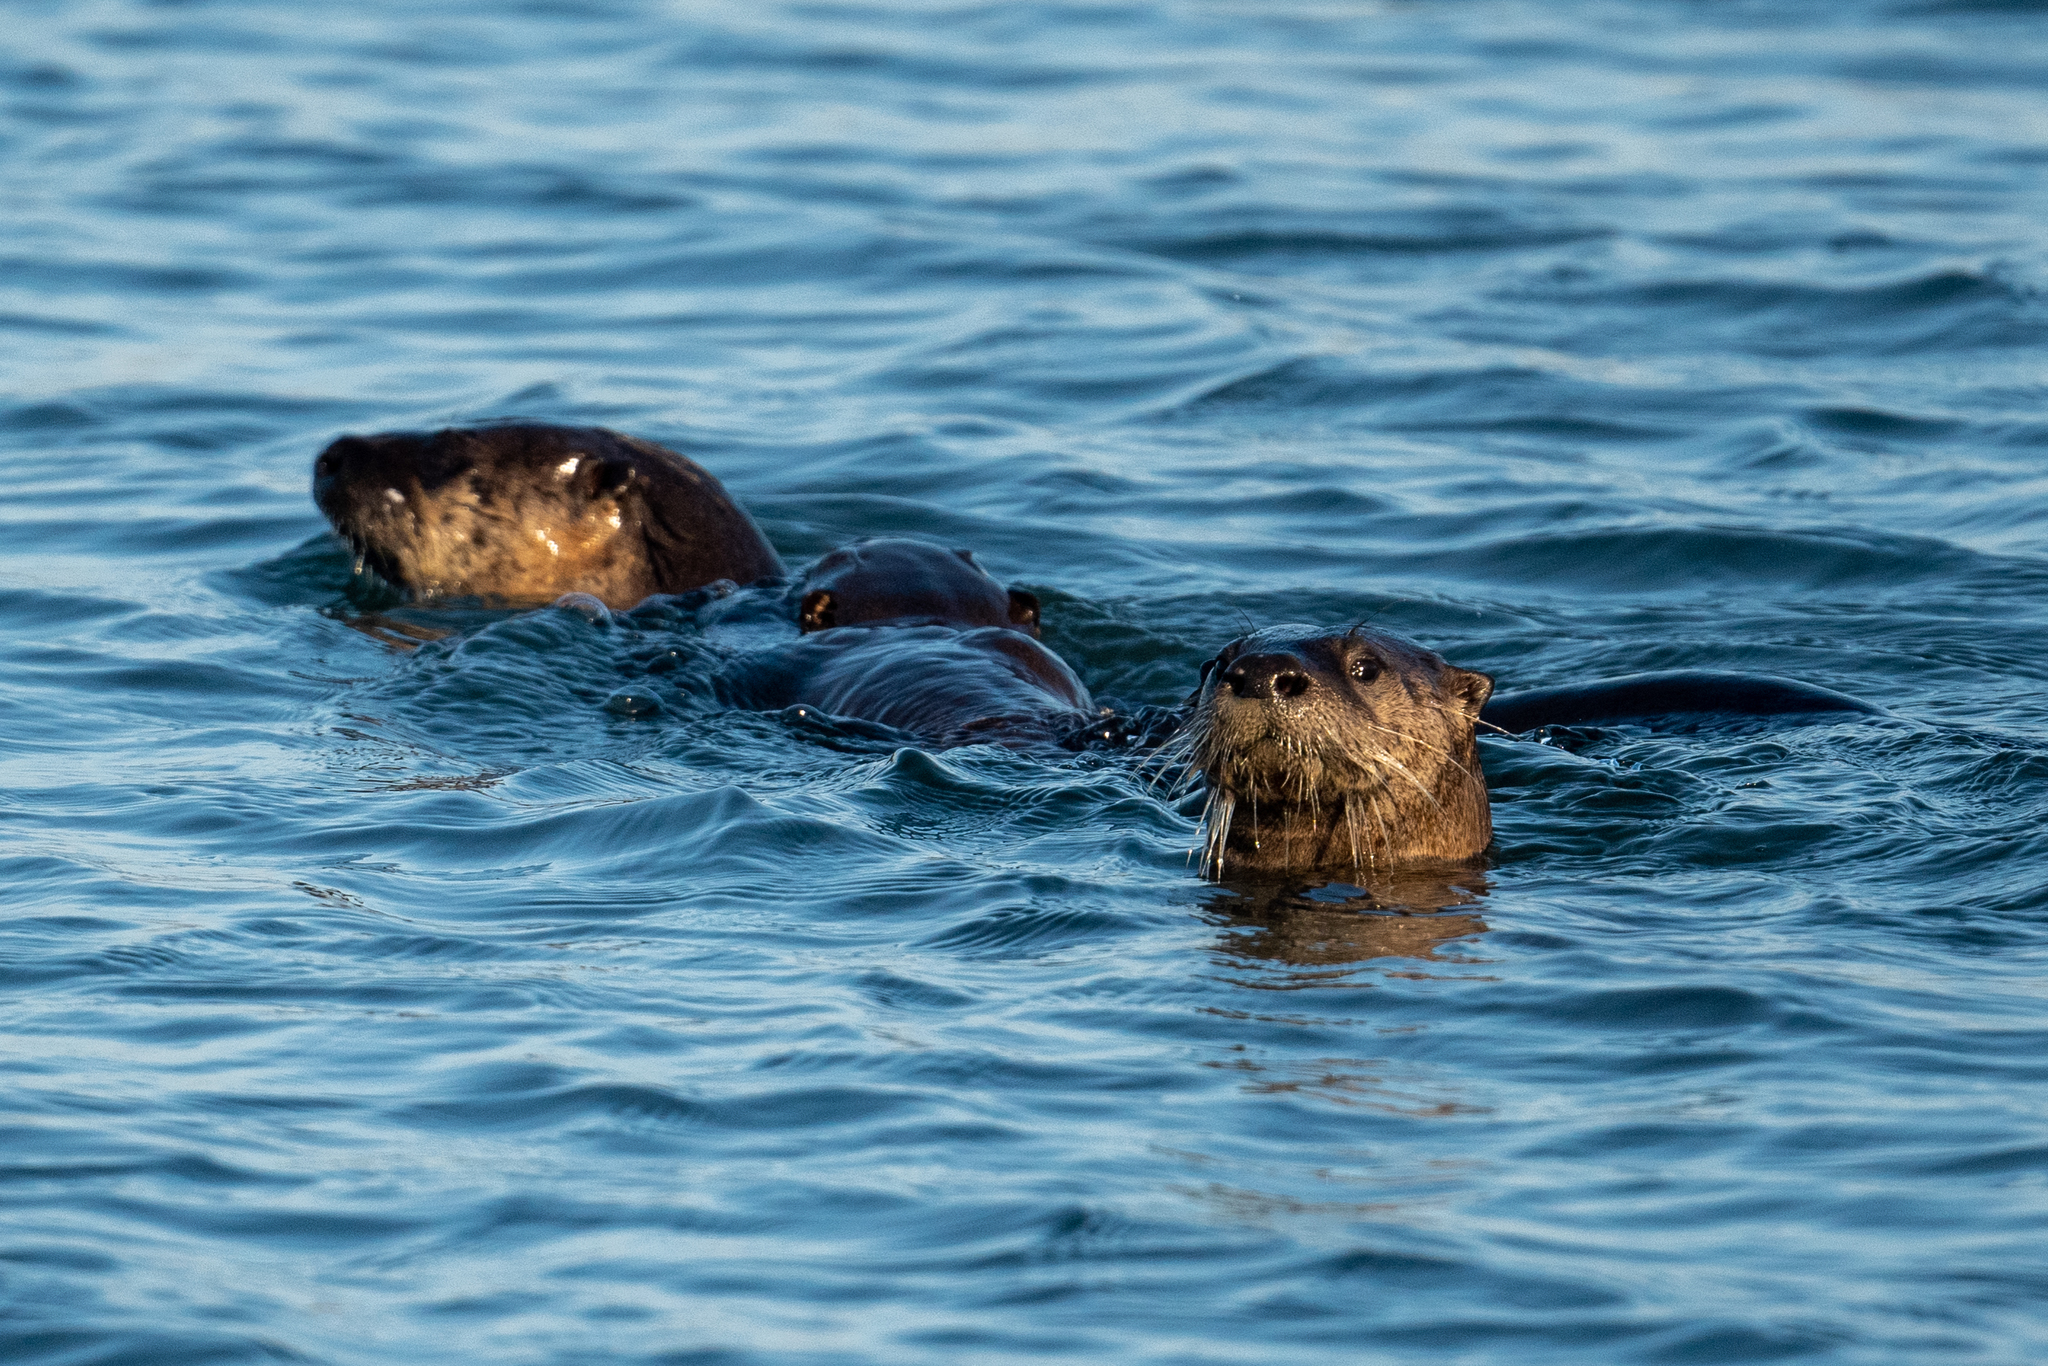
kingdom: Animalia
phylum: Chordata
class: Mammalia
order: Carnivora
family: Mustelidae
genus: Lontra
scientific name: Lontra canadensis
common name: North american river otter
